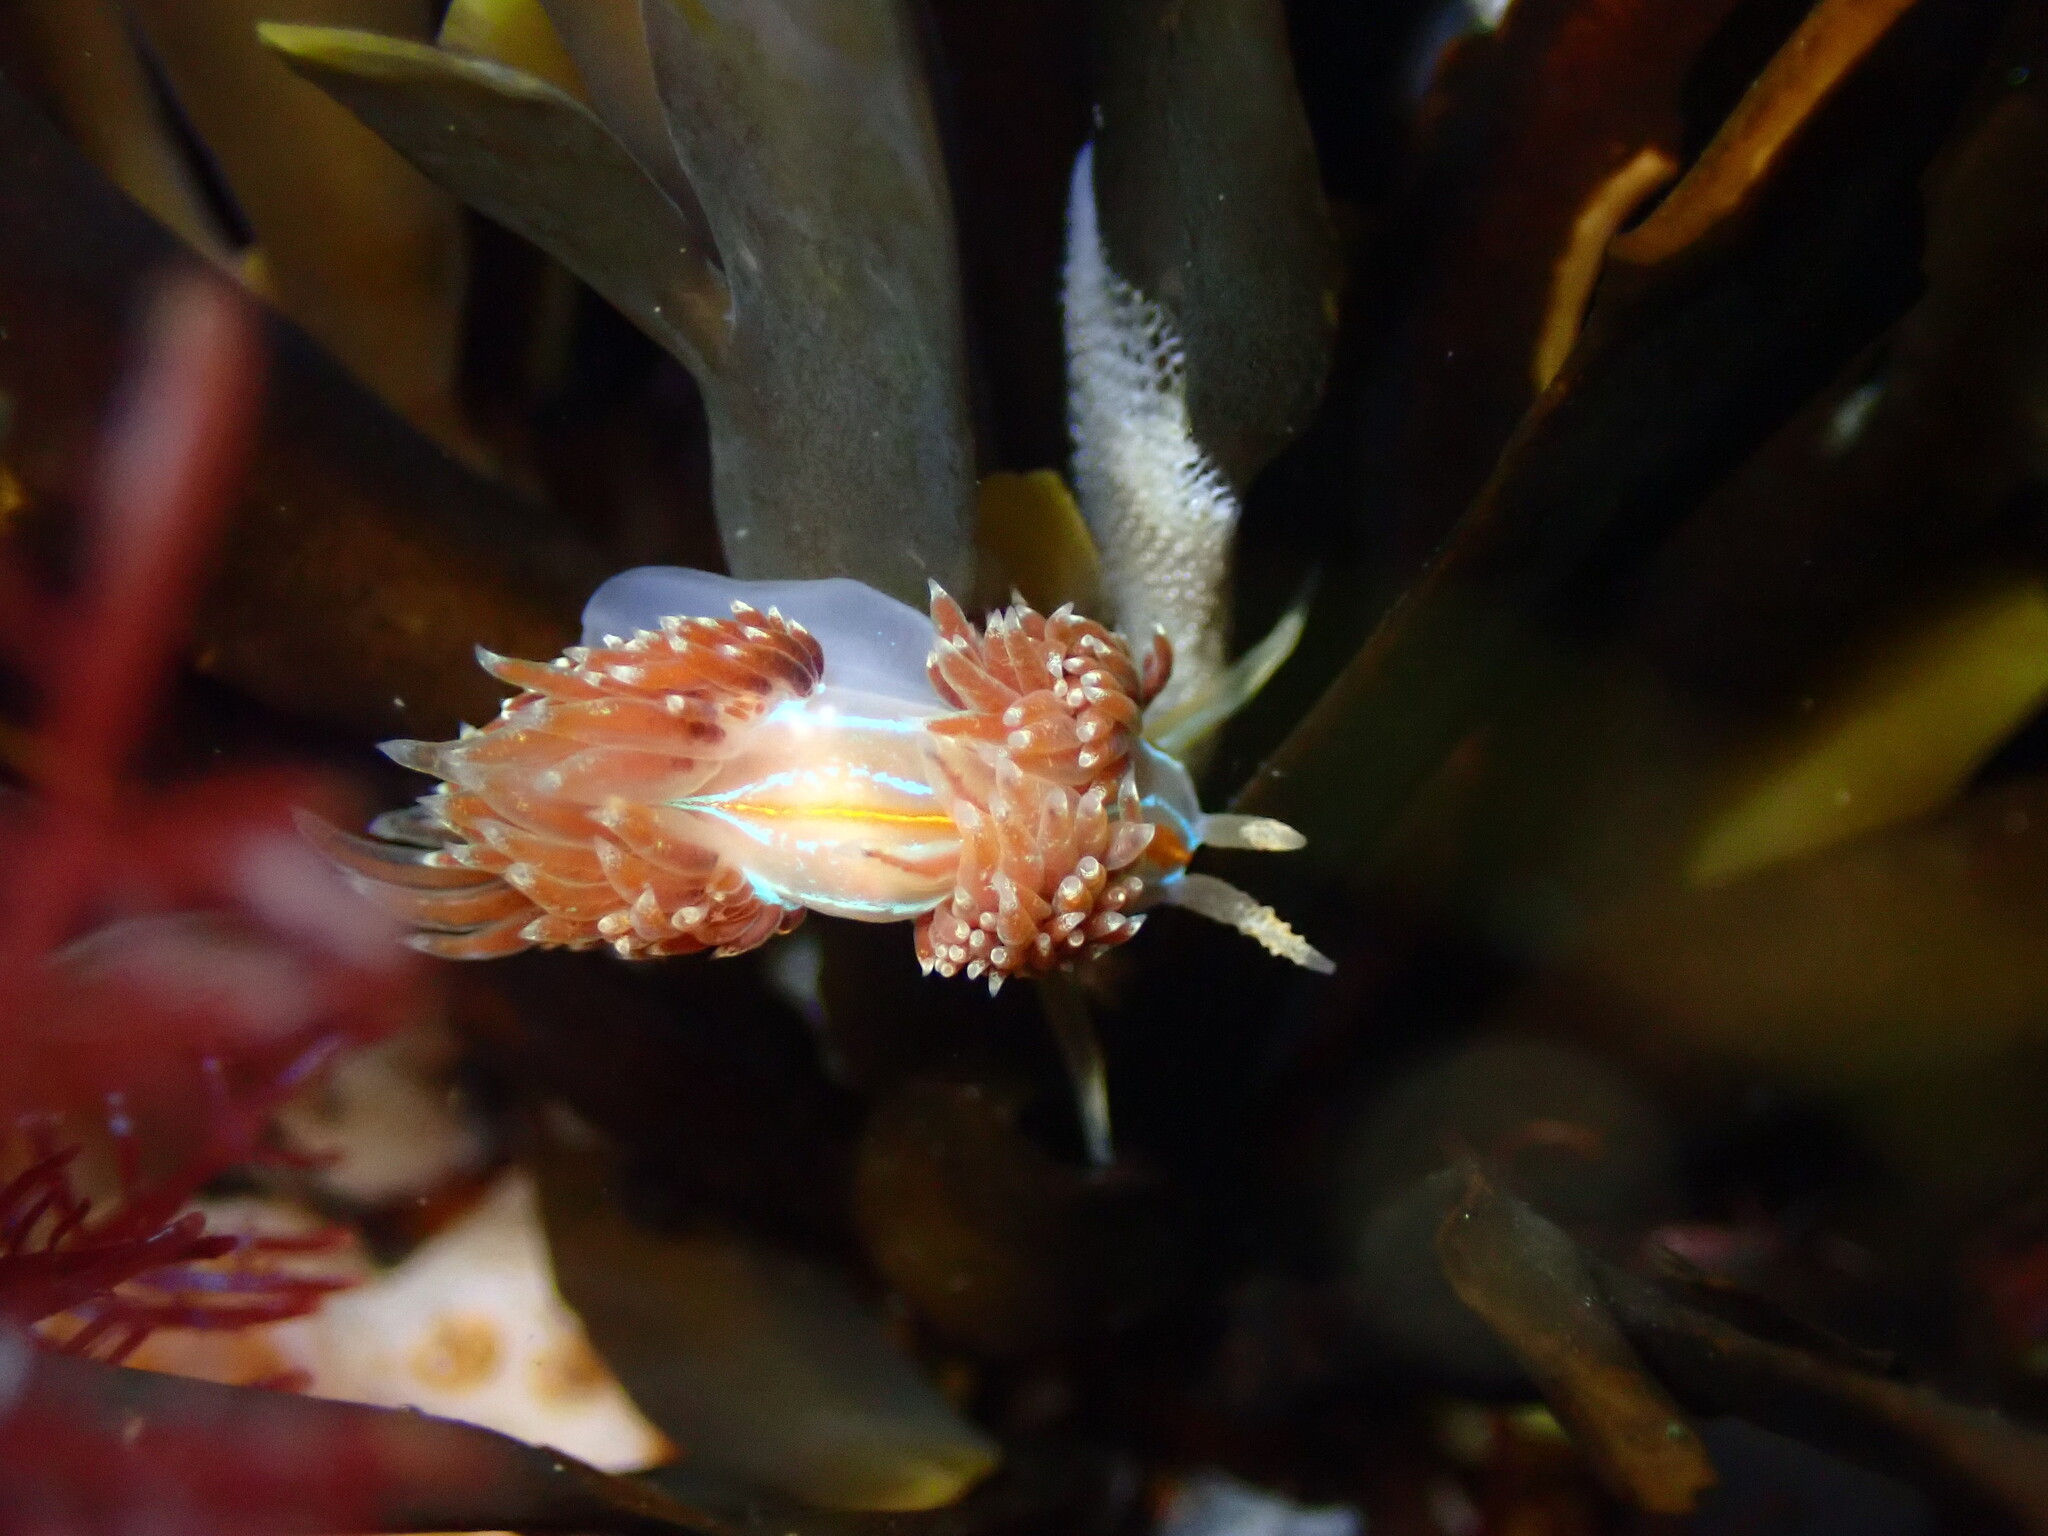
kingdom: Animalia
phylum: Mollusca
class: Gastropoda
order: Nudibranchia
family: Myrrhinidae
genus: Hermissenda
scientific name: Hermissenda opalescens
